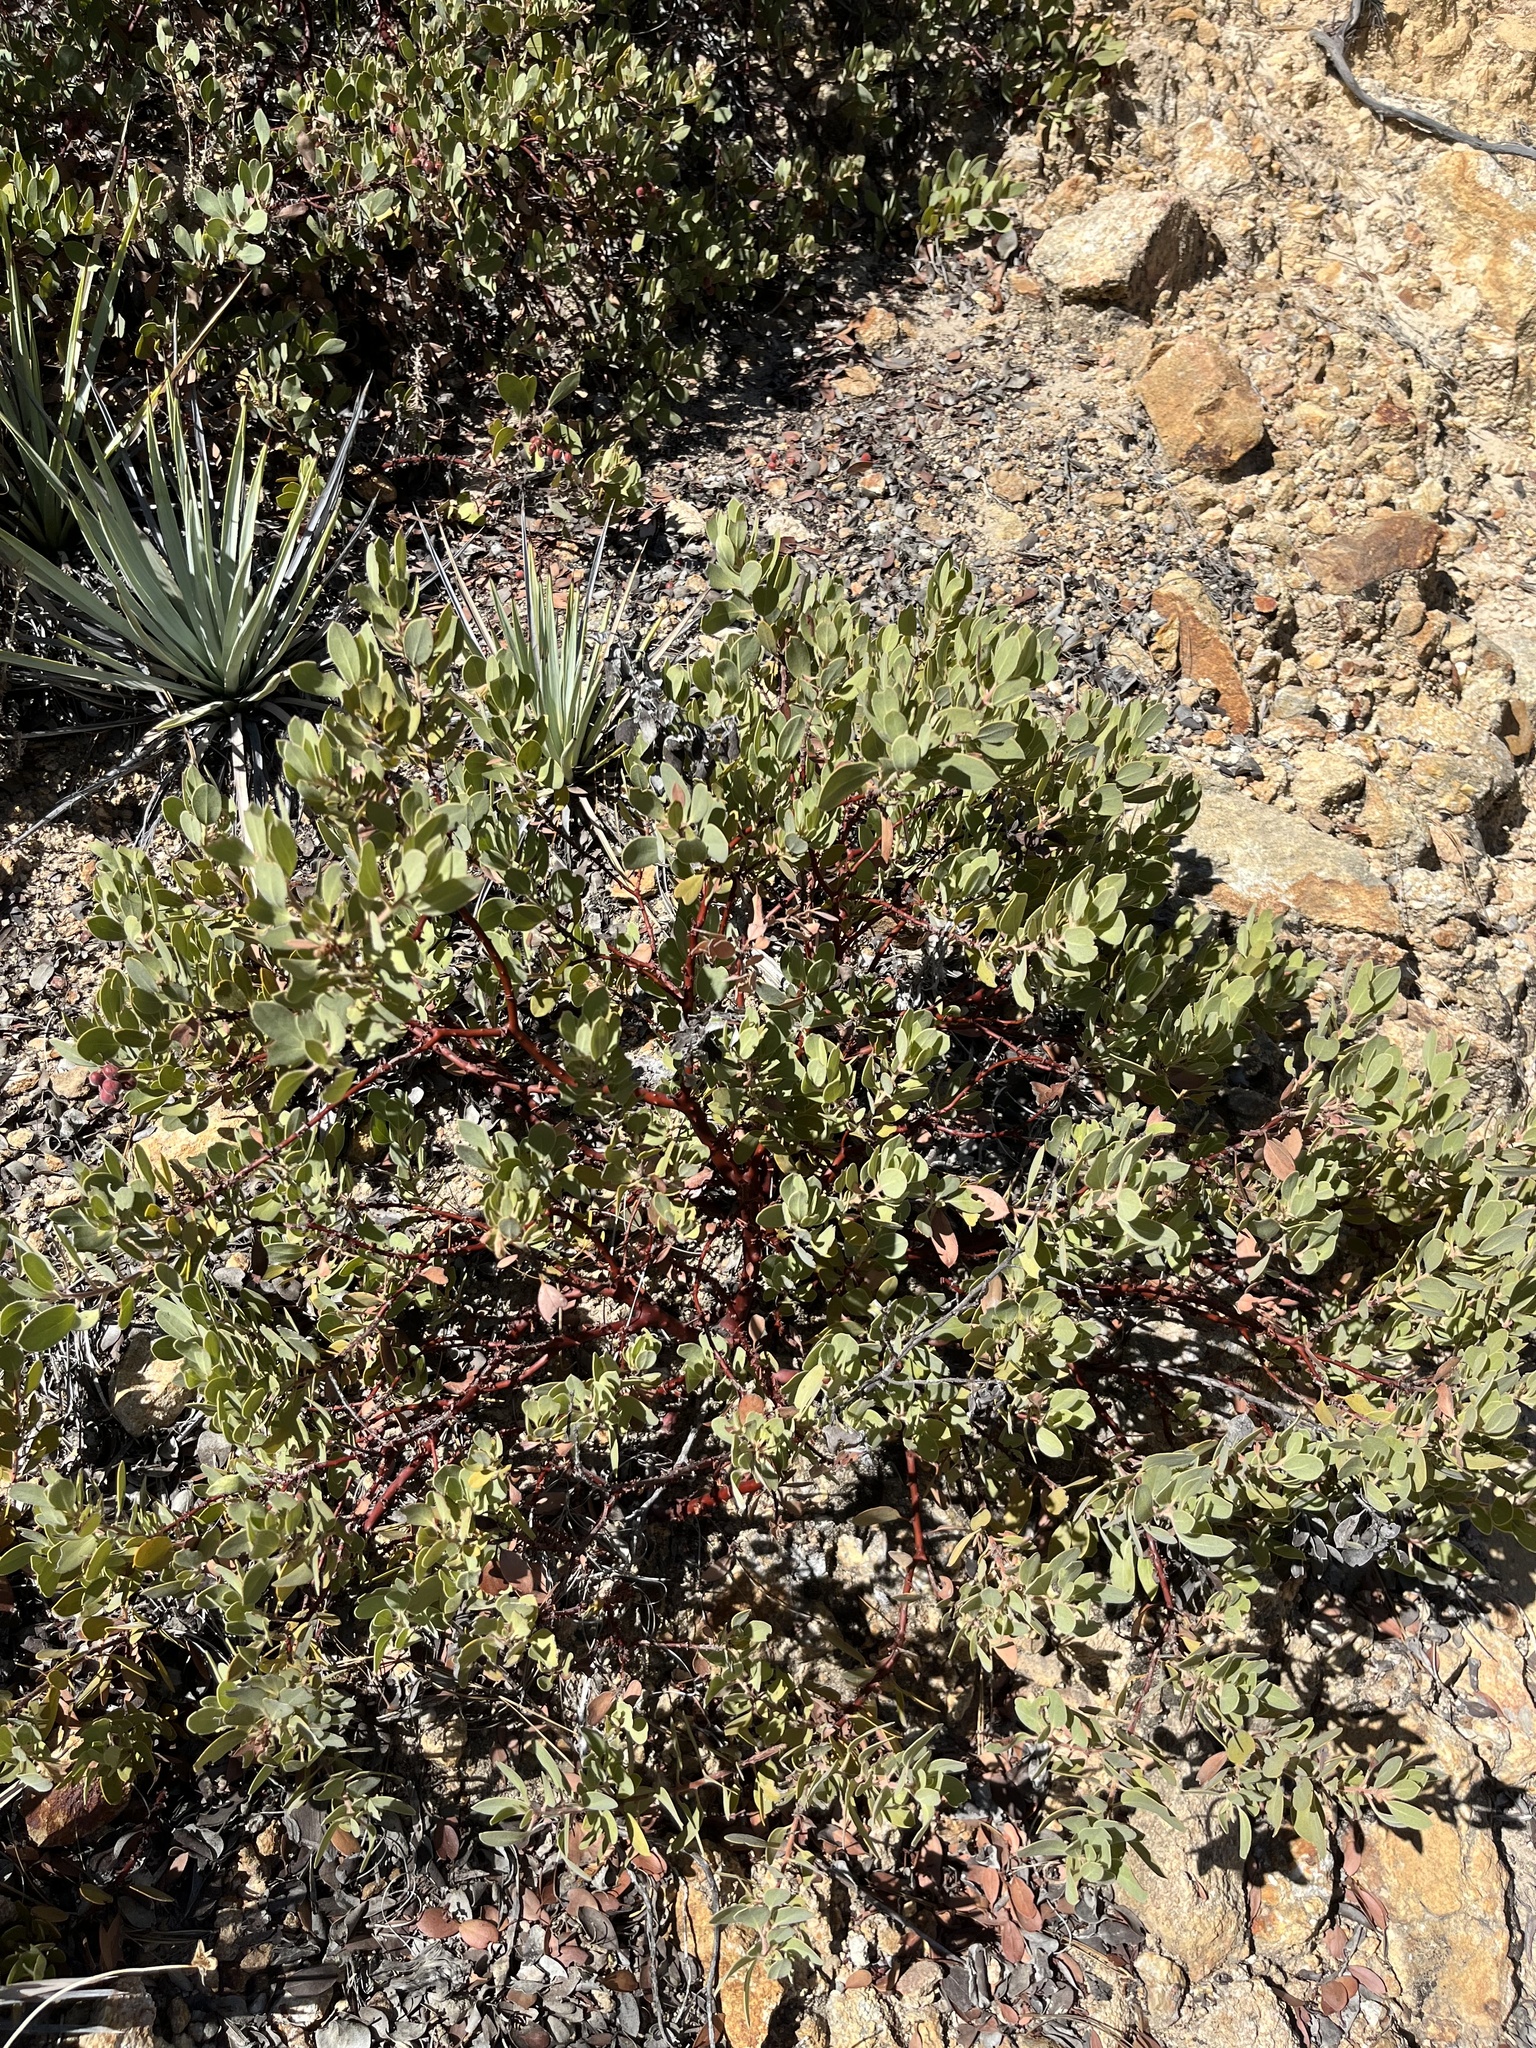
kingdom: Plantae
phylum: Tracheophyta
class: Magnoliopsida
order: Ericales
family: Ericaceae
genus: Arctostaphylos
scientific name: Arctostaphylos glandulosa
